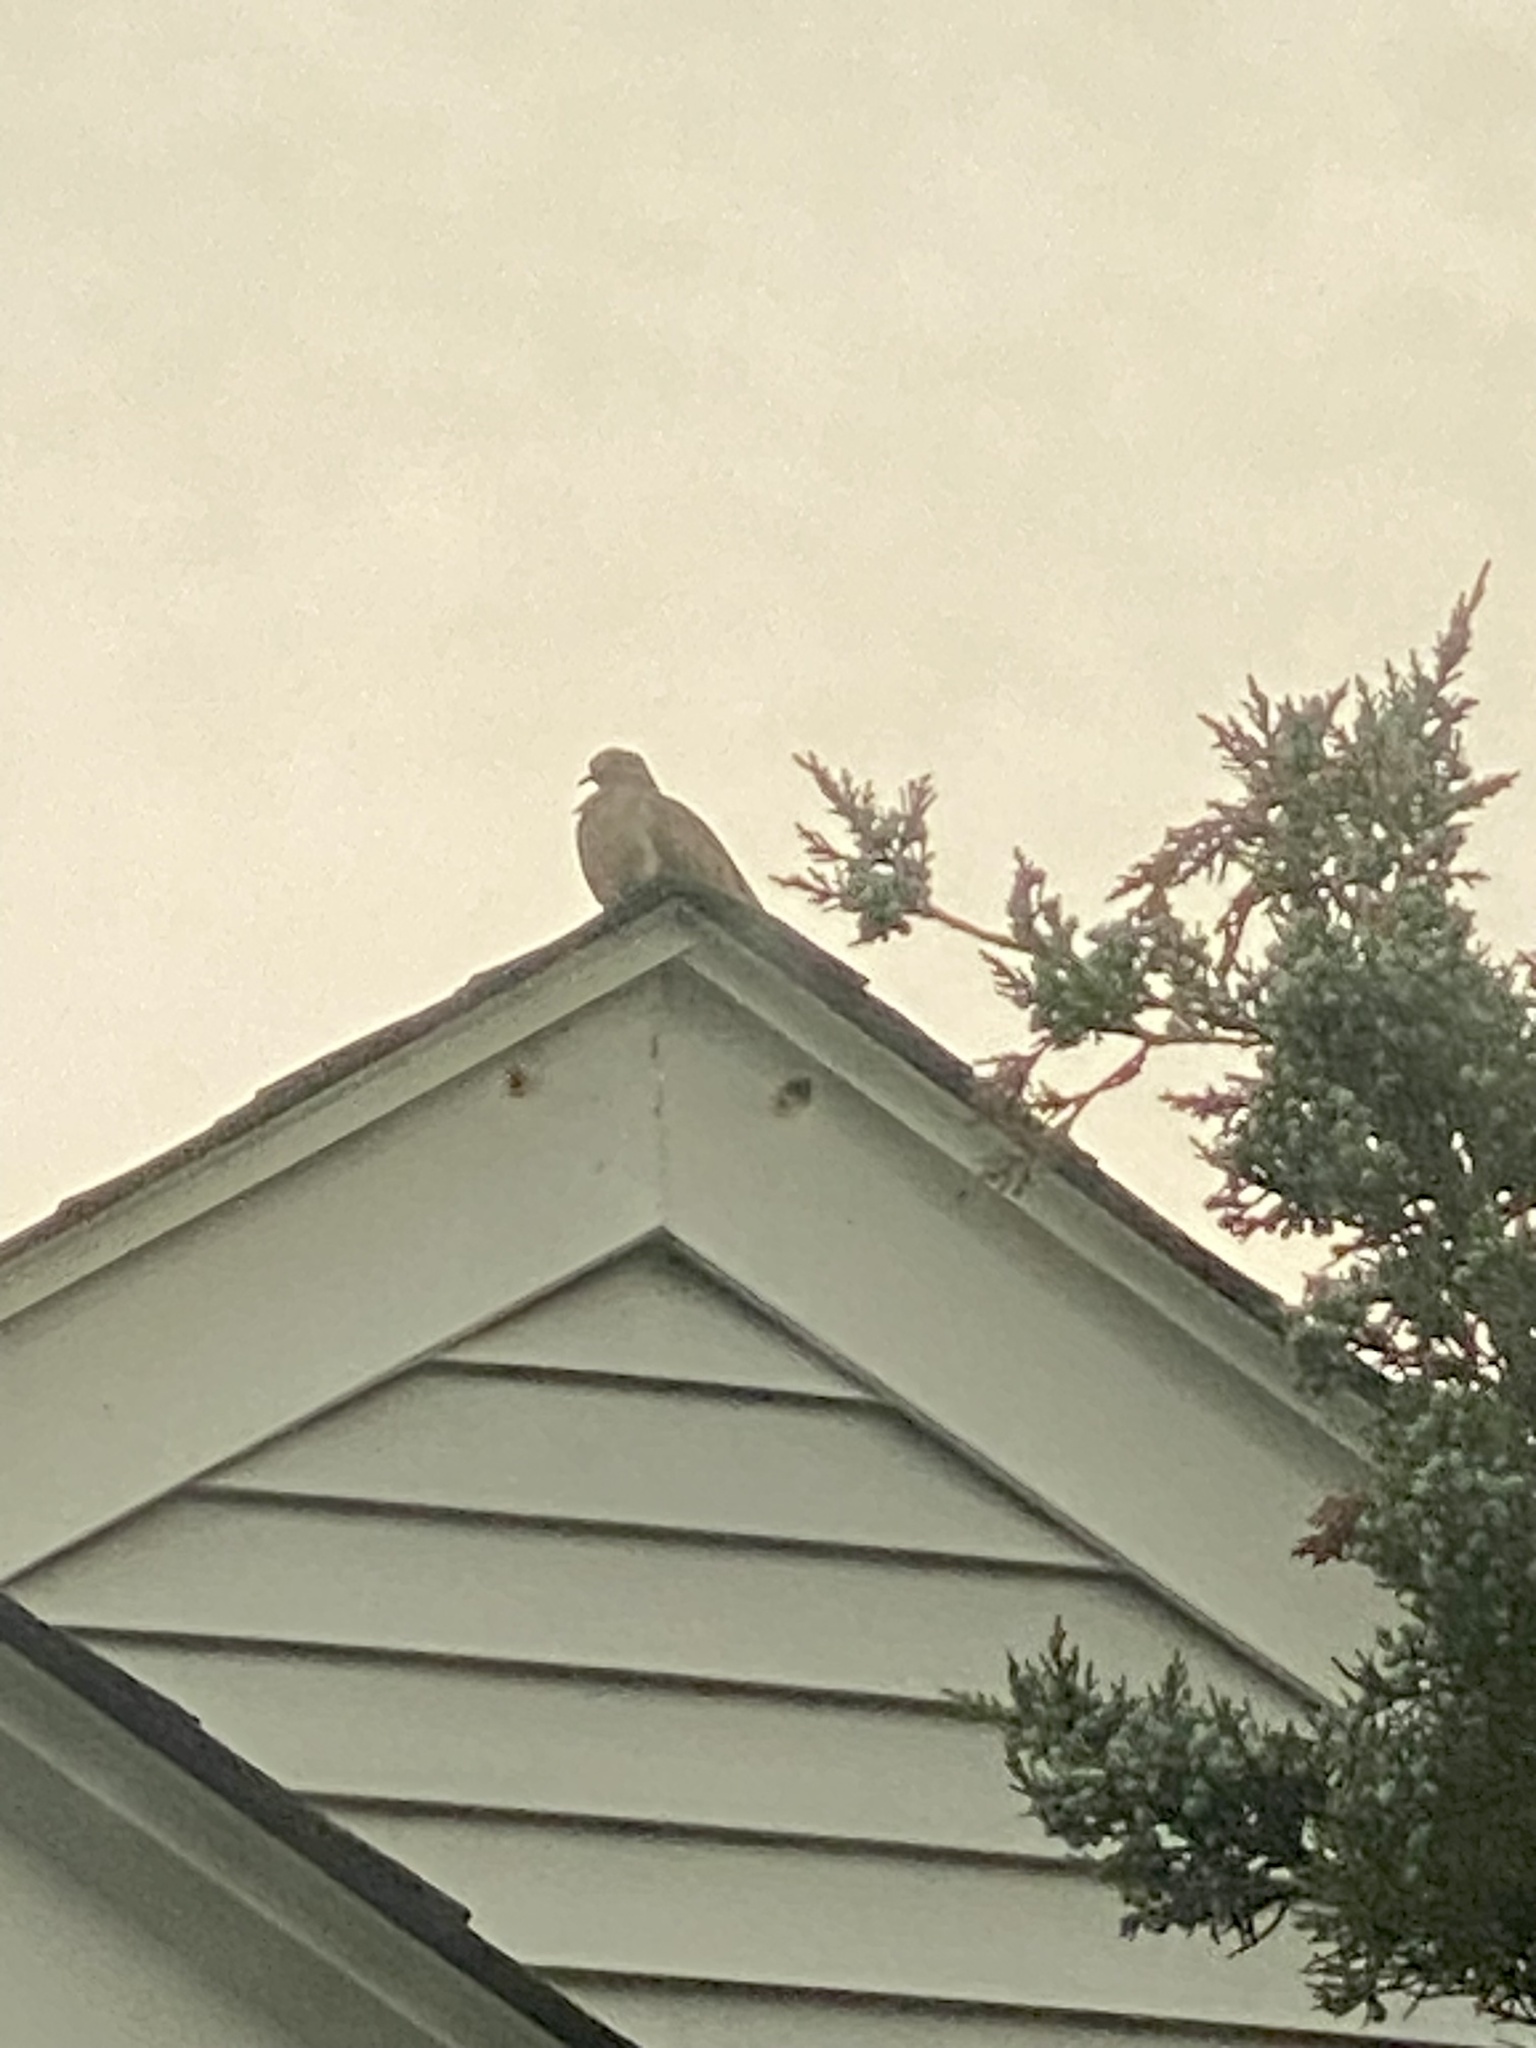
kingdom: Animalia
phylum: Chordata
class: Aves
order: Columbiformes
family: Columbidae
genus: Zenaida
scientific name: Zenaida macroura
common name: Mourning dove
